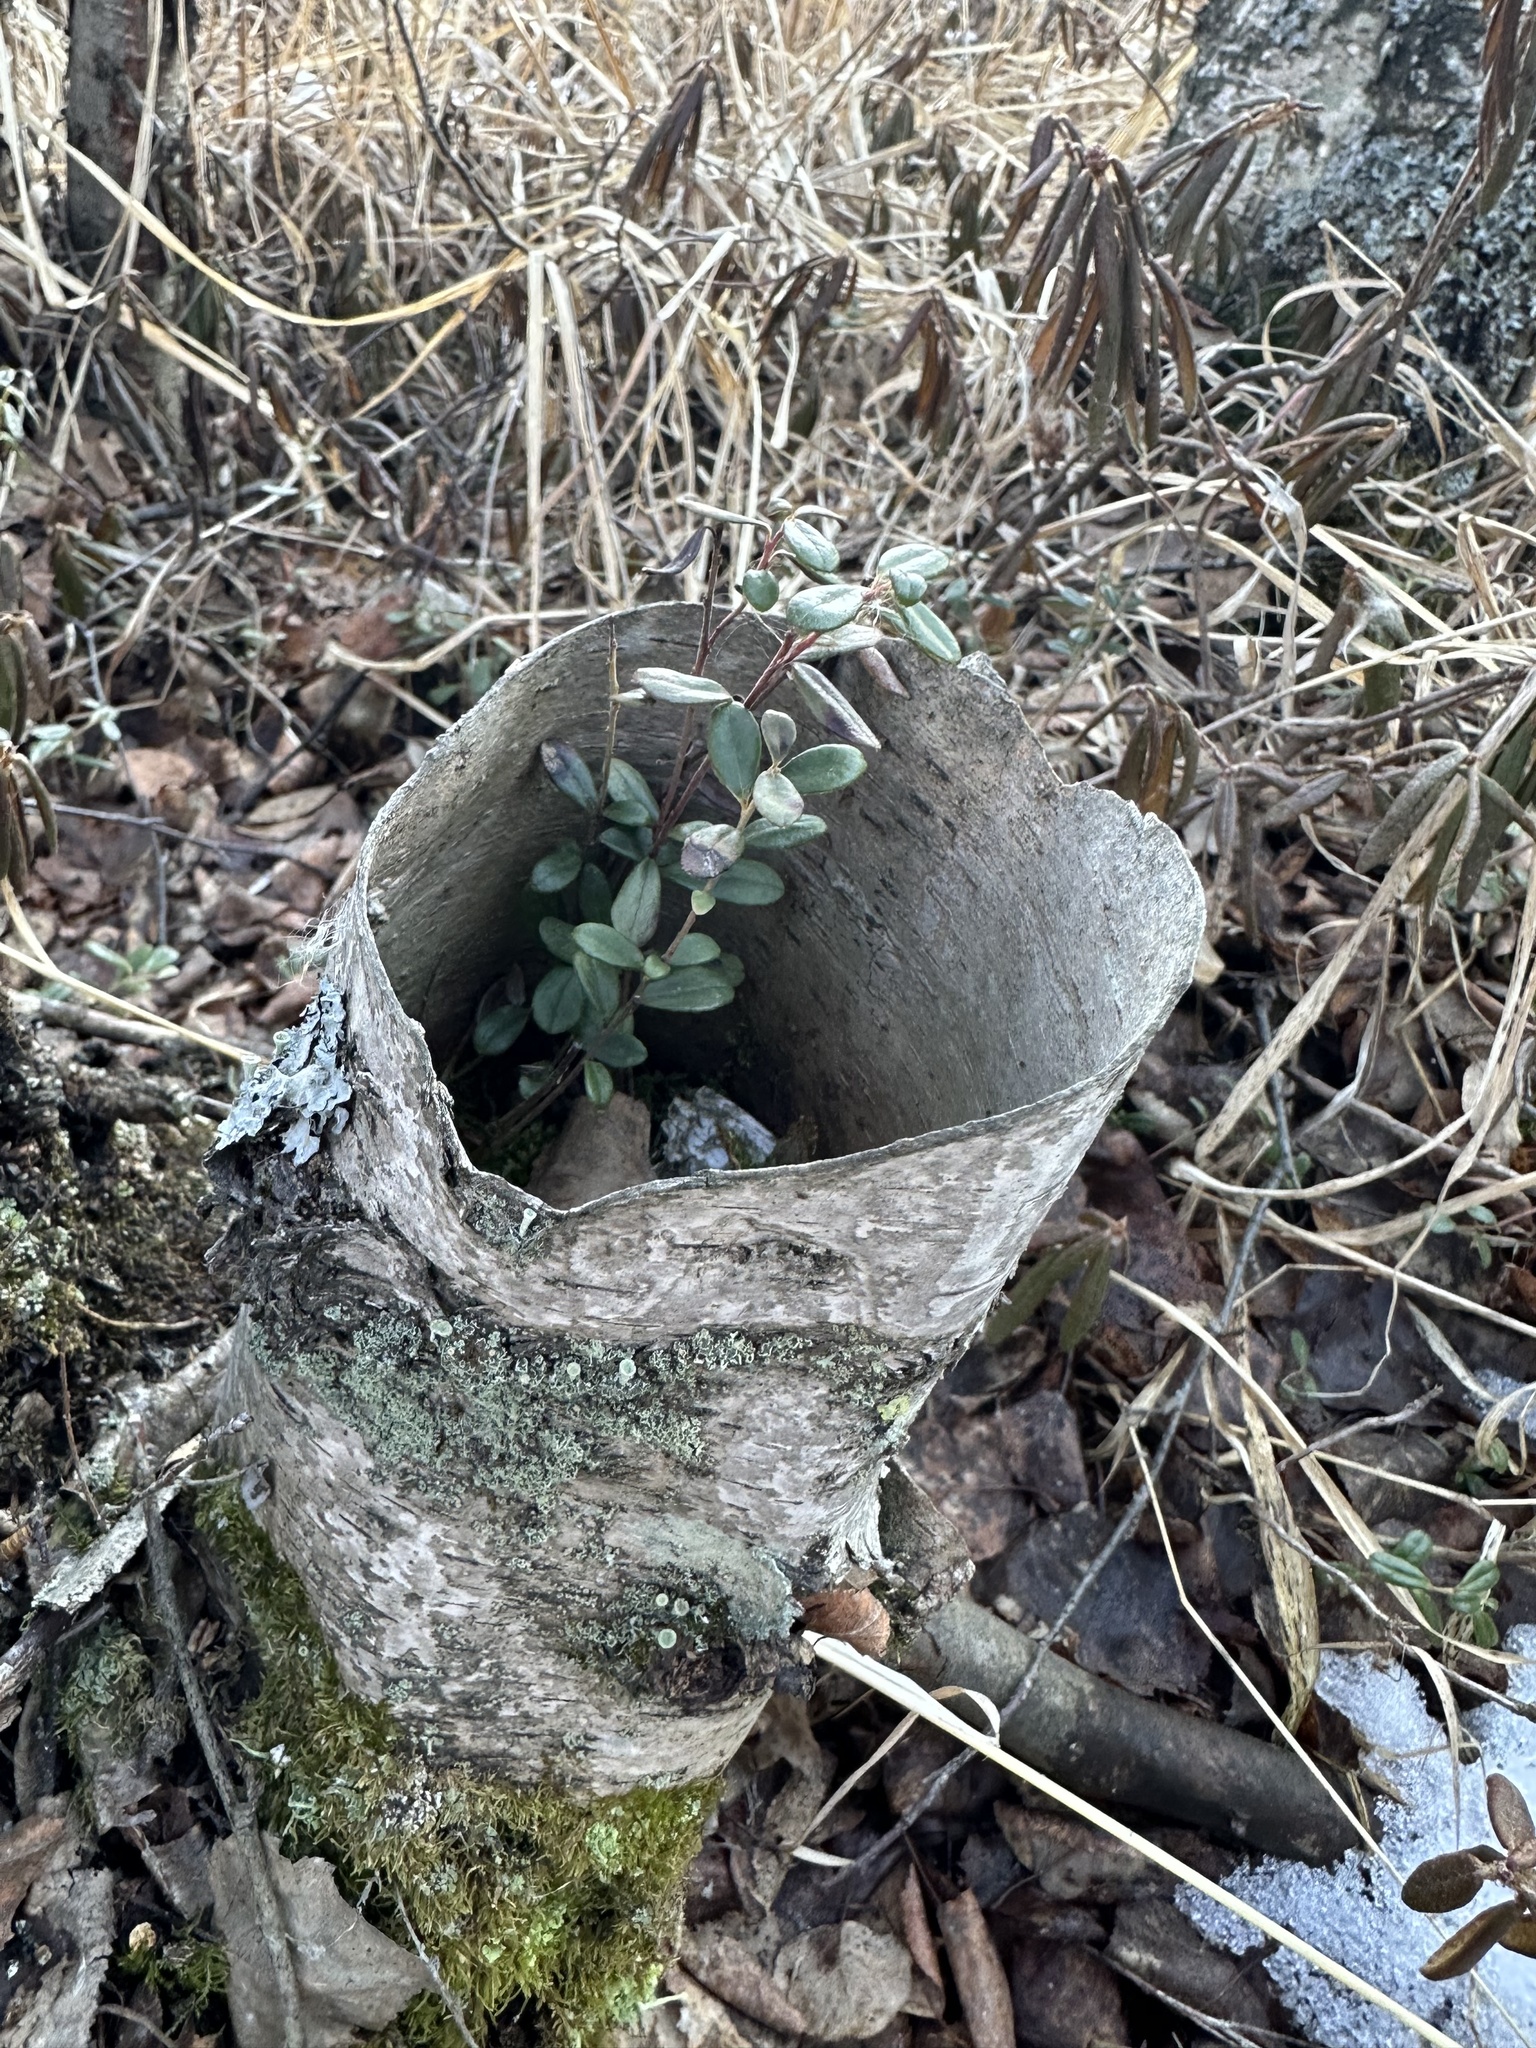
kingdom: Plantae
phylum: Tracheophyta
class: Magnoliopsida
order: Ericales
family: Ericaceae
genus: Vaccinium
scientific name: Vaccinium vitis-idaea
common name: Cowberry
